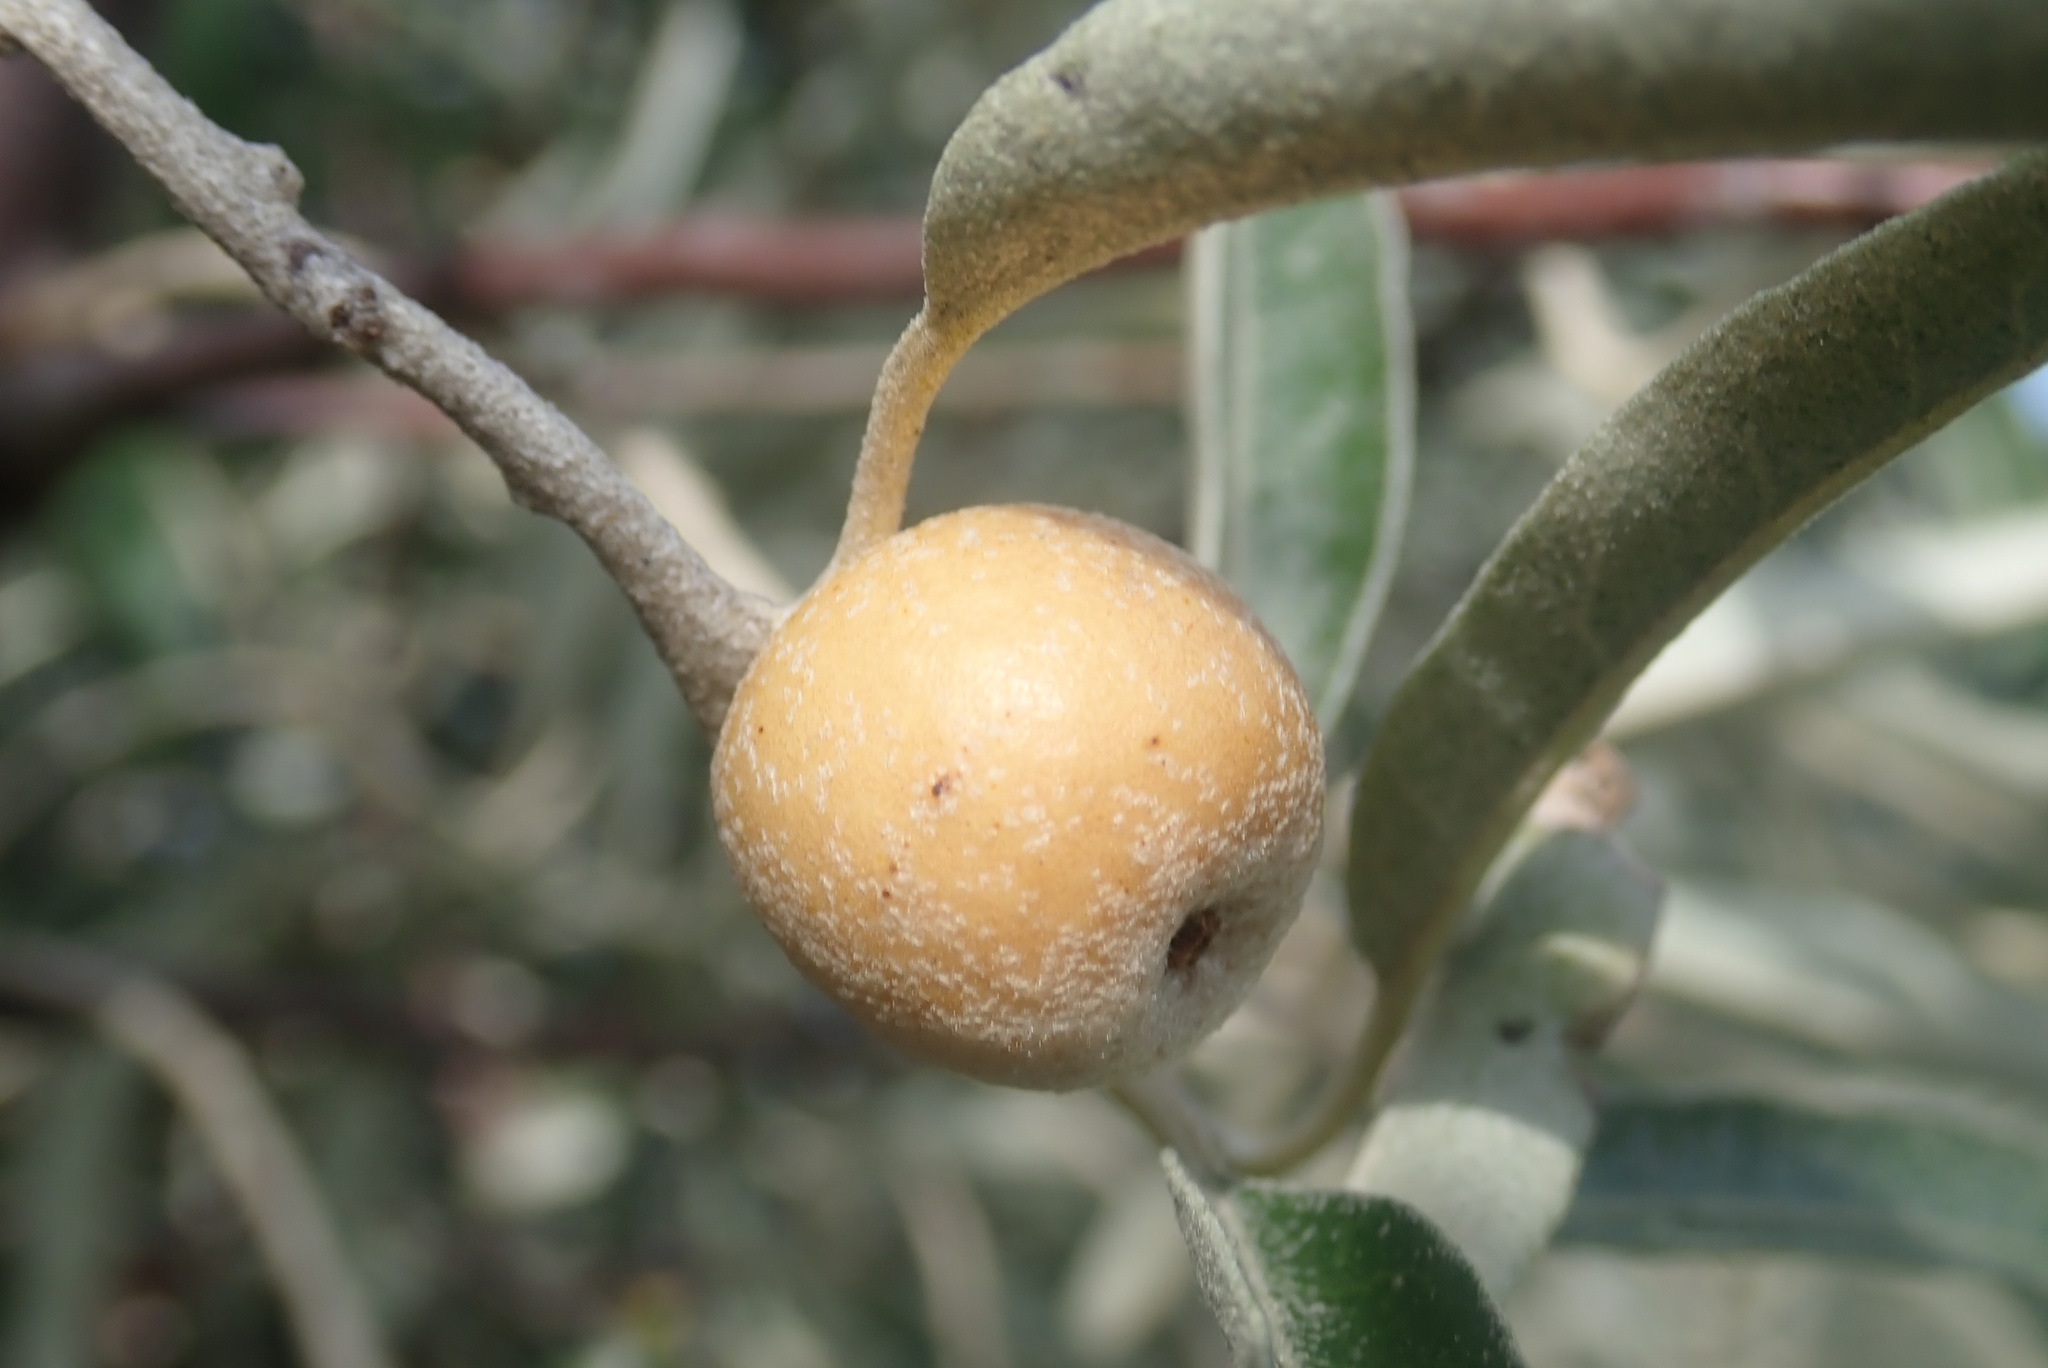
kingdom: Plantae
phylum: Tracheophyta
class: Magnoliopsida
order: Rosales
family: Elaeagnaceae
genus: Elaeagnus
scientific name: Elaeagnus angustifolia
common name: Russian olive
